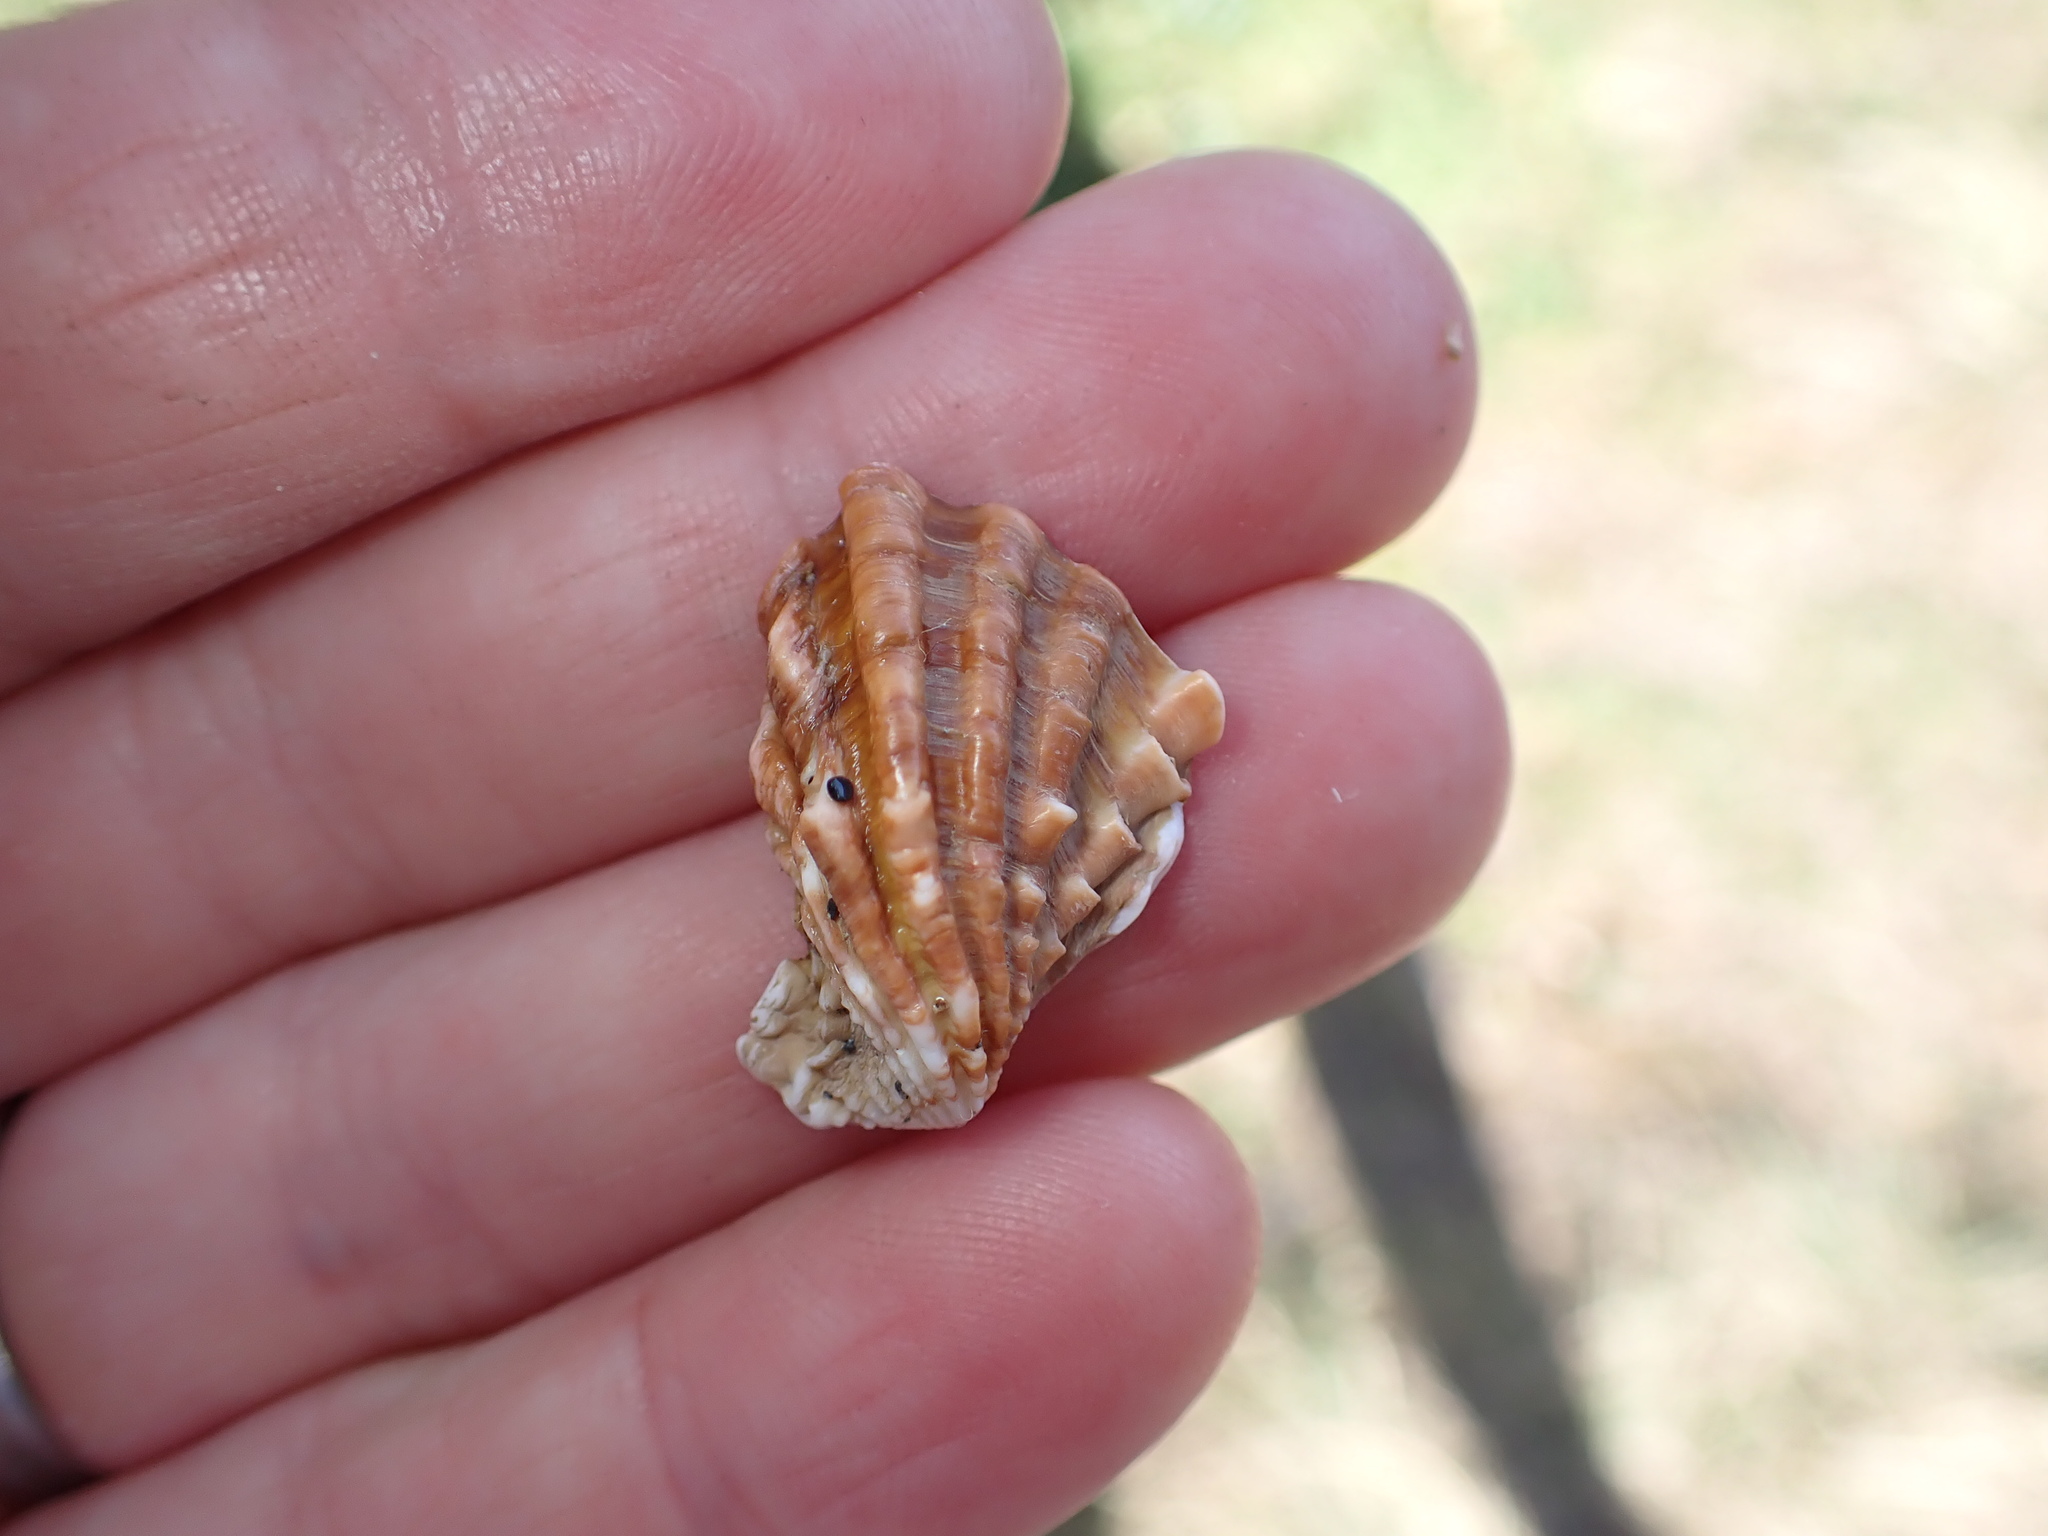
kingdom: Animalia
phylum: Mollusca
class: Bivalvia
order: Carditida
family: Carditidae
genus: Cardita
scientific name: Cardita distorta
